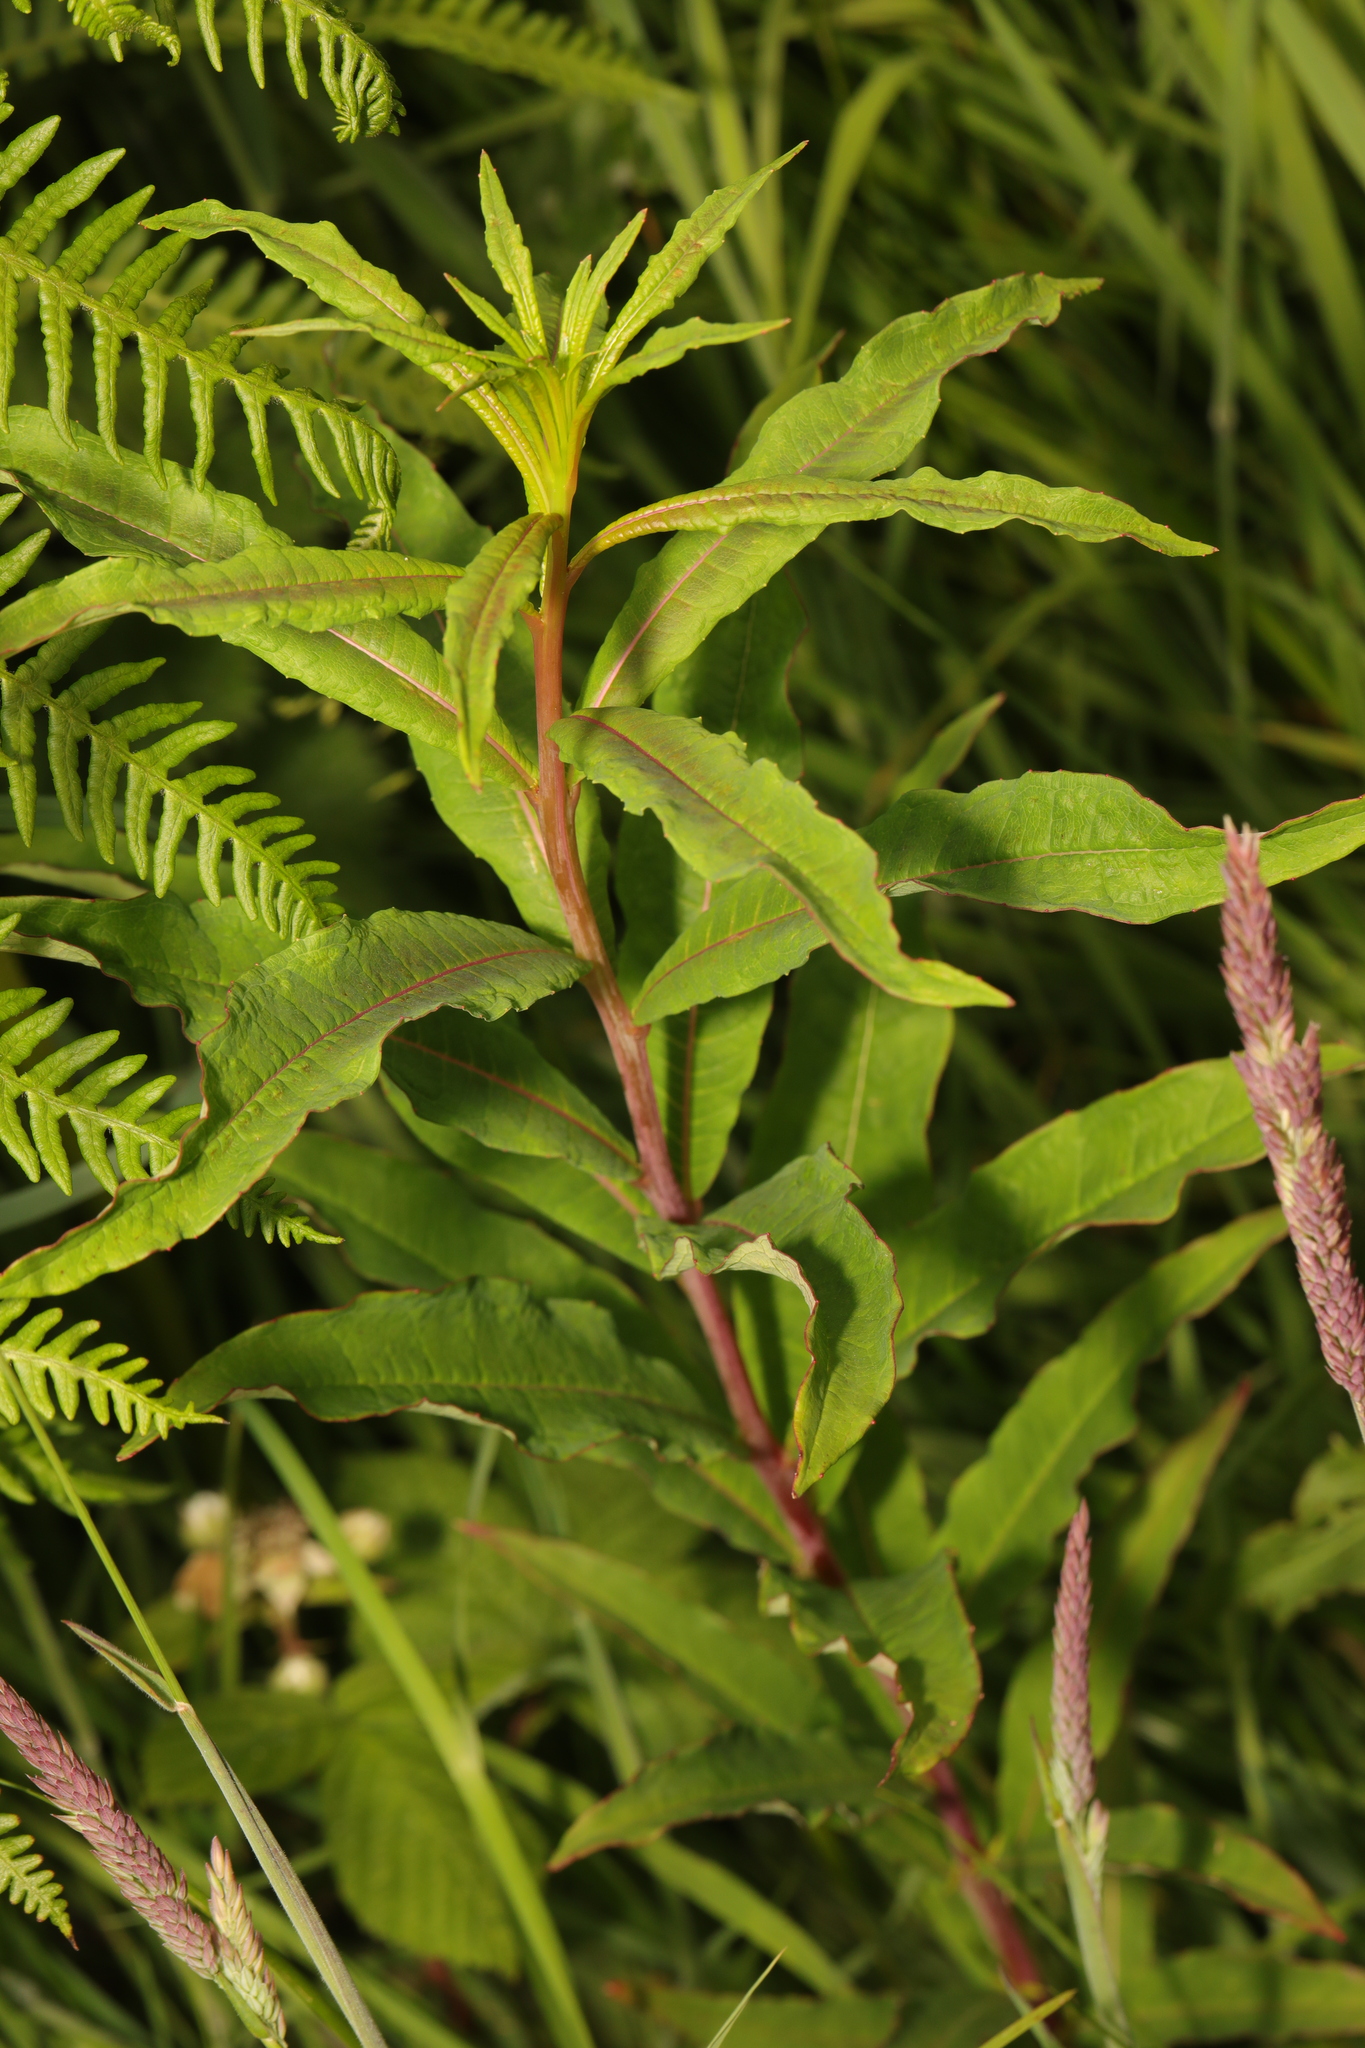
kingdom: Plantae
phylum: Tracheophyta
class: Magnoliopsida
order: Myrtales
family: Onagraceae
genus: Chamaenerion
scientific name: Chamaenerion angustifolium
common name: Fireweed
